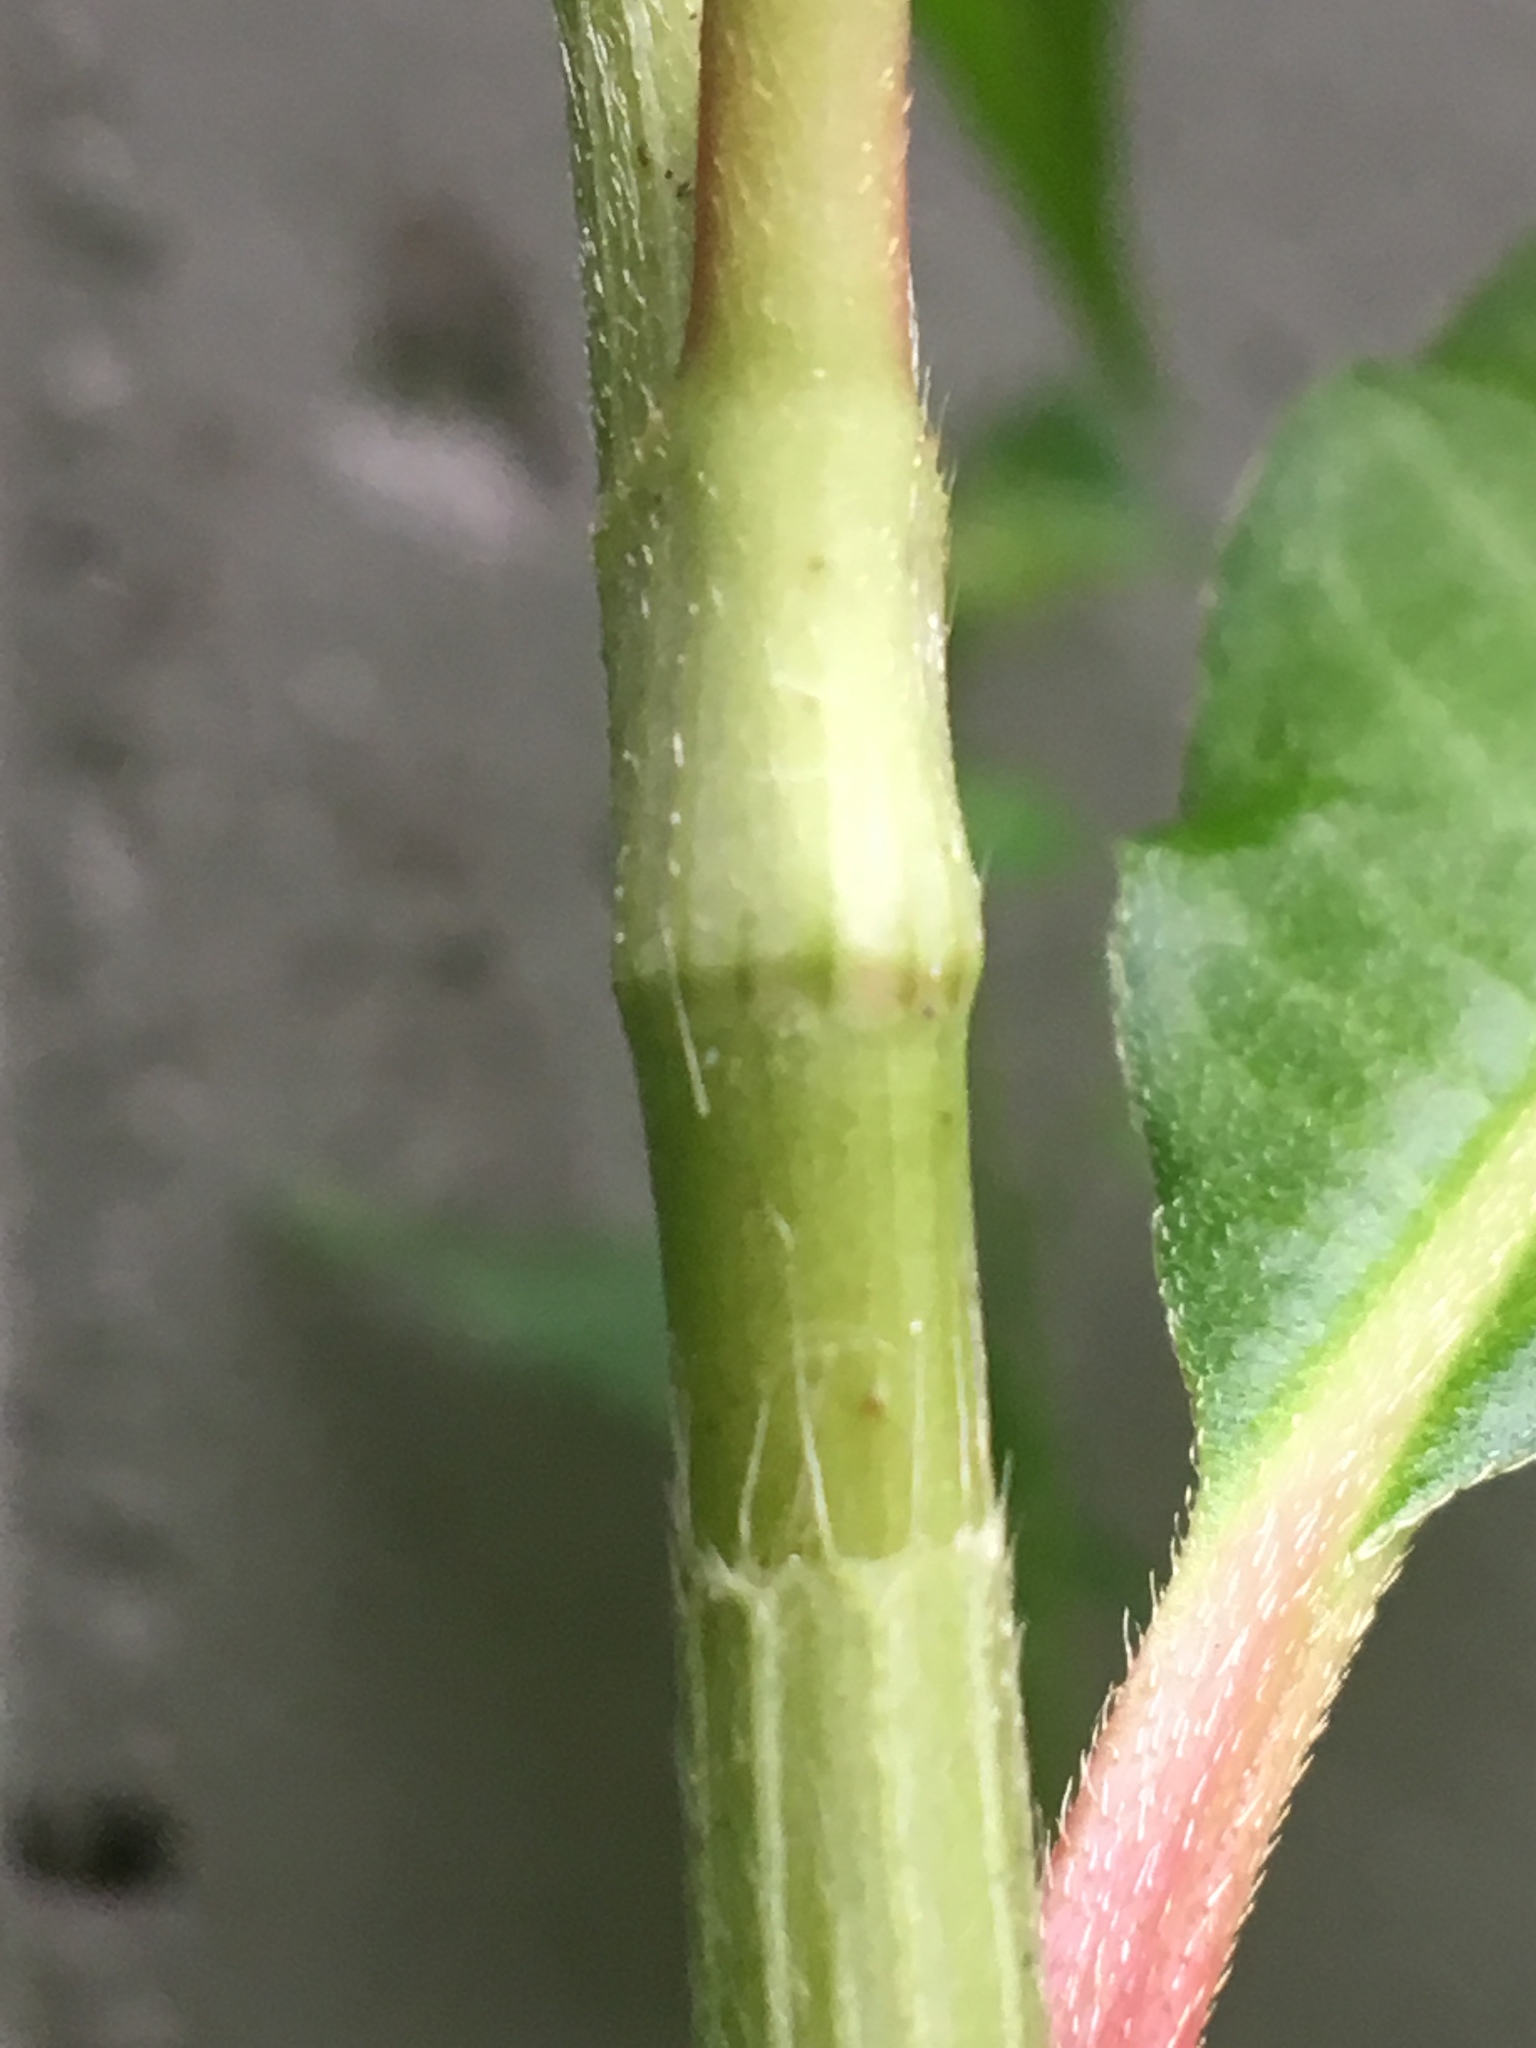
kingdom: Plantae
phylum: Tracheophyta
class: Magnoliopsida
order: Caryophyllales
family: Polygonaceae
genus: Persicaria
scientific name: Persicaria extremiorientalis
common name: Far-eastern smartweed
